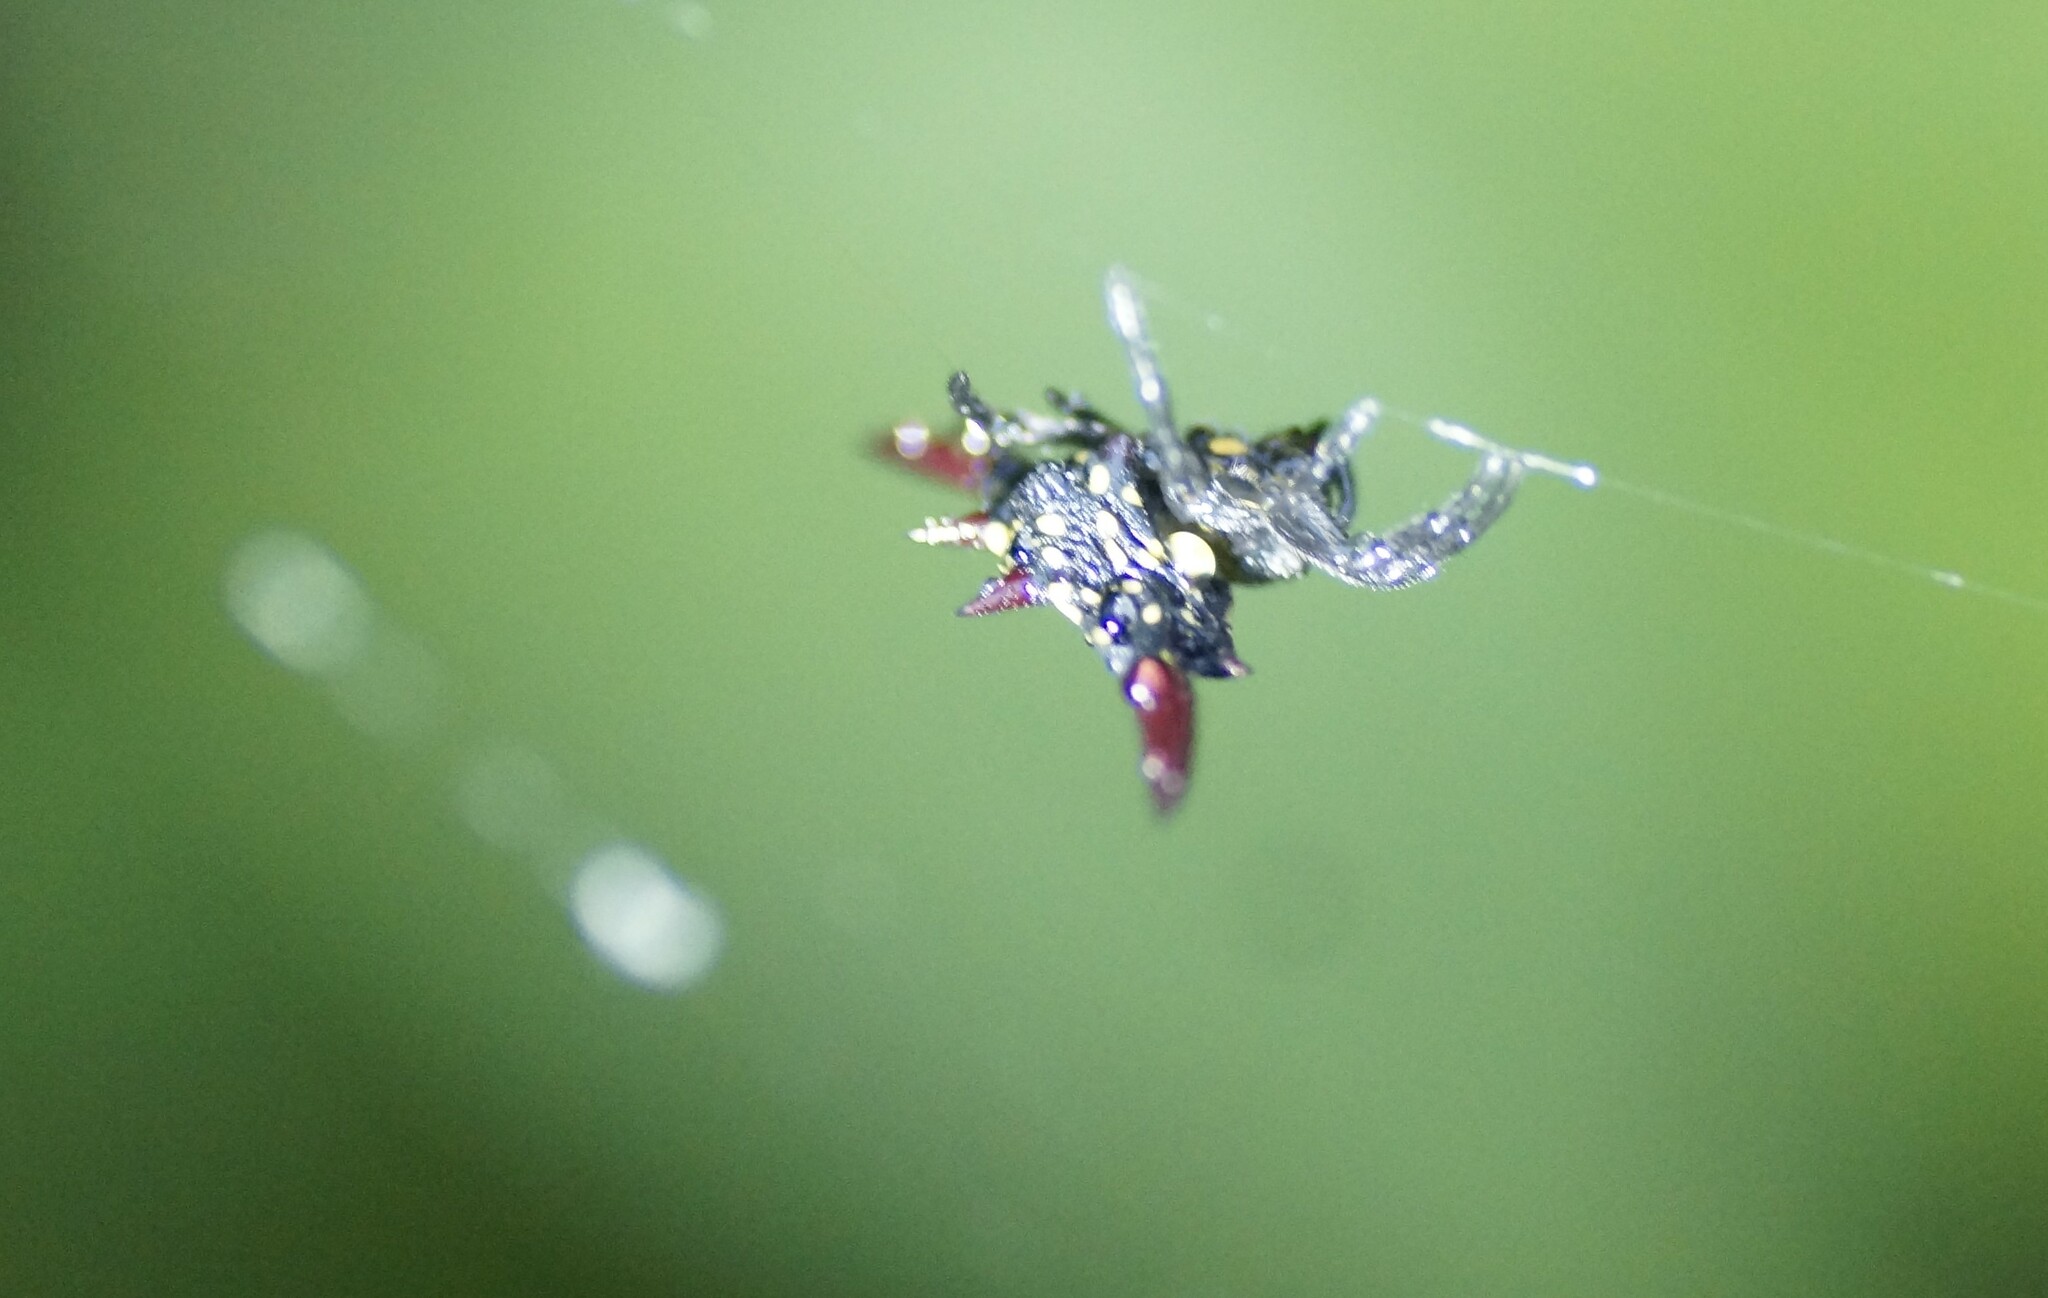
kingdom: Animalia
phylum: Arthropoda
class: Arachnida
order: Araneae
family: Araneidae
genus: Gasteracantha
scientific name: Gasteracantha fornicata
